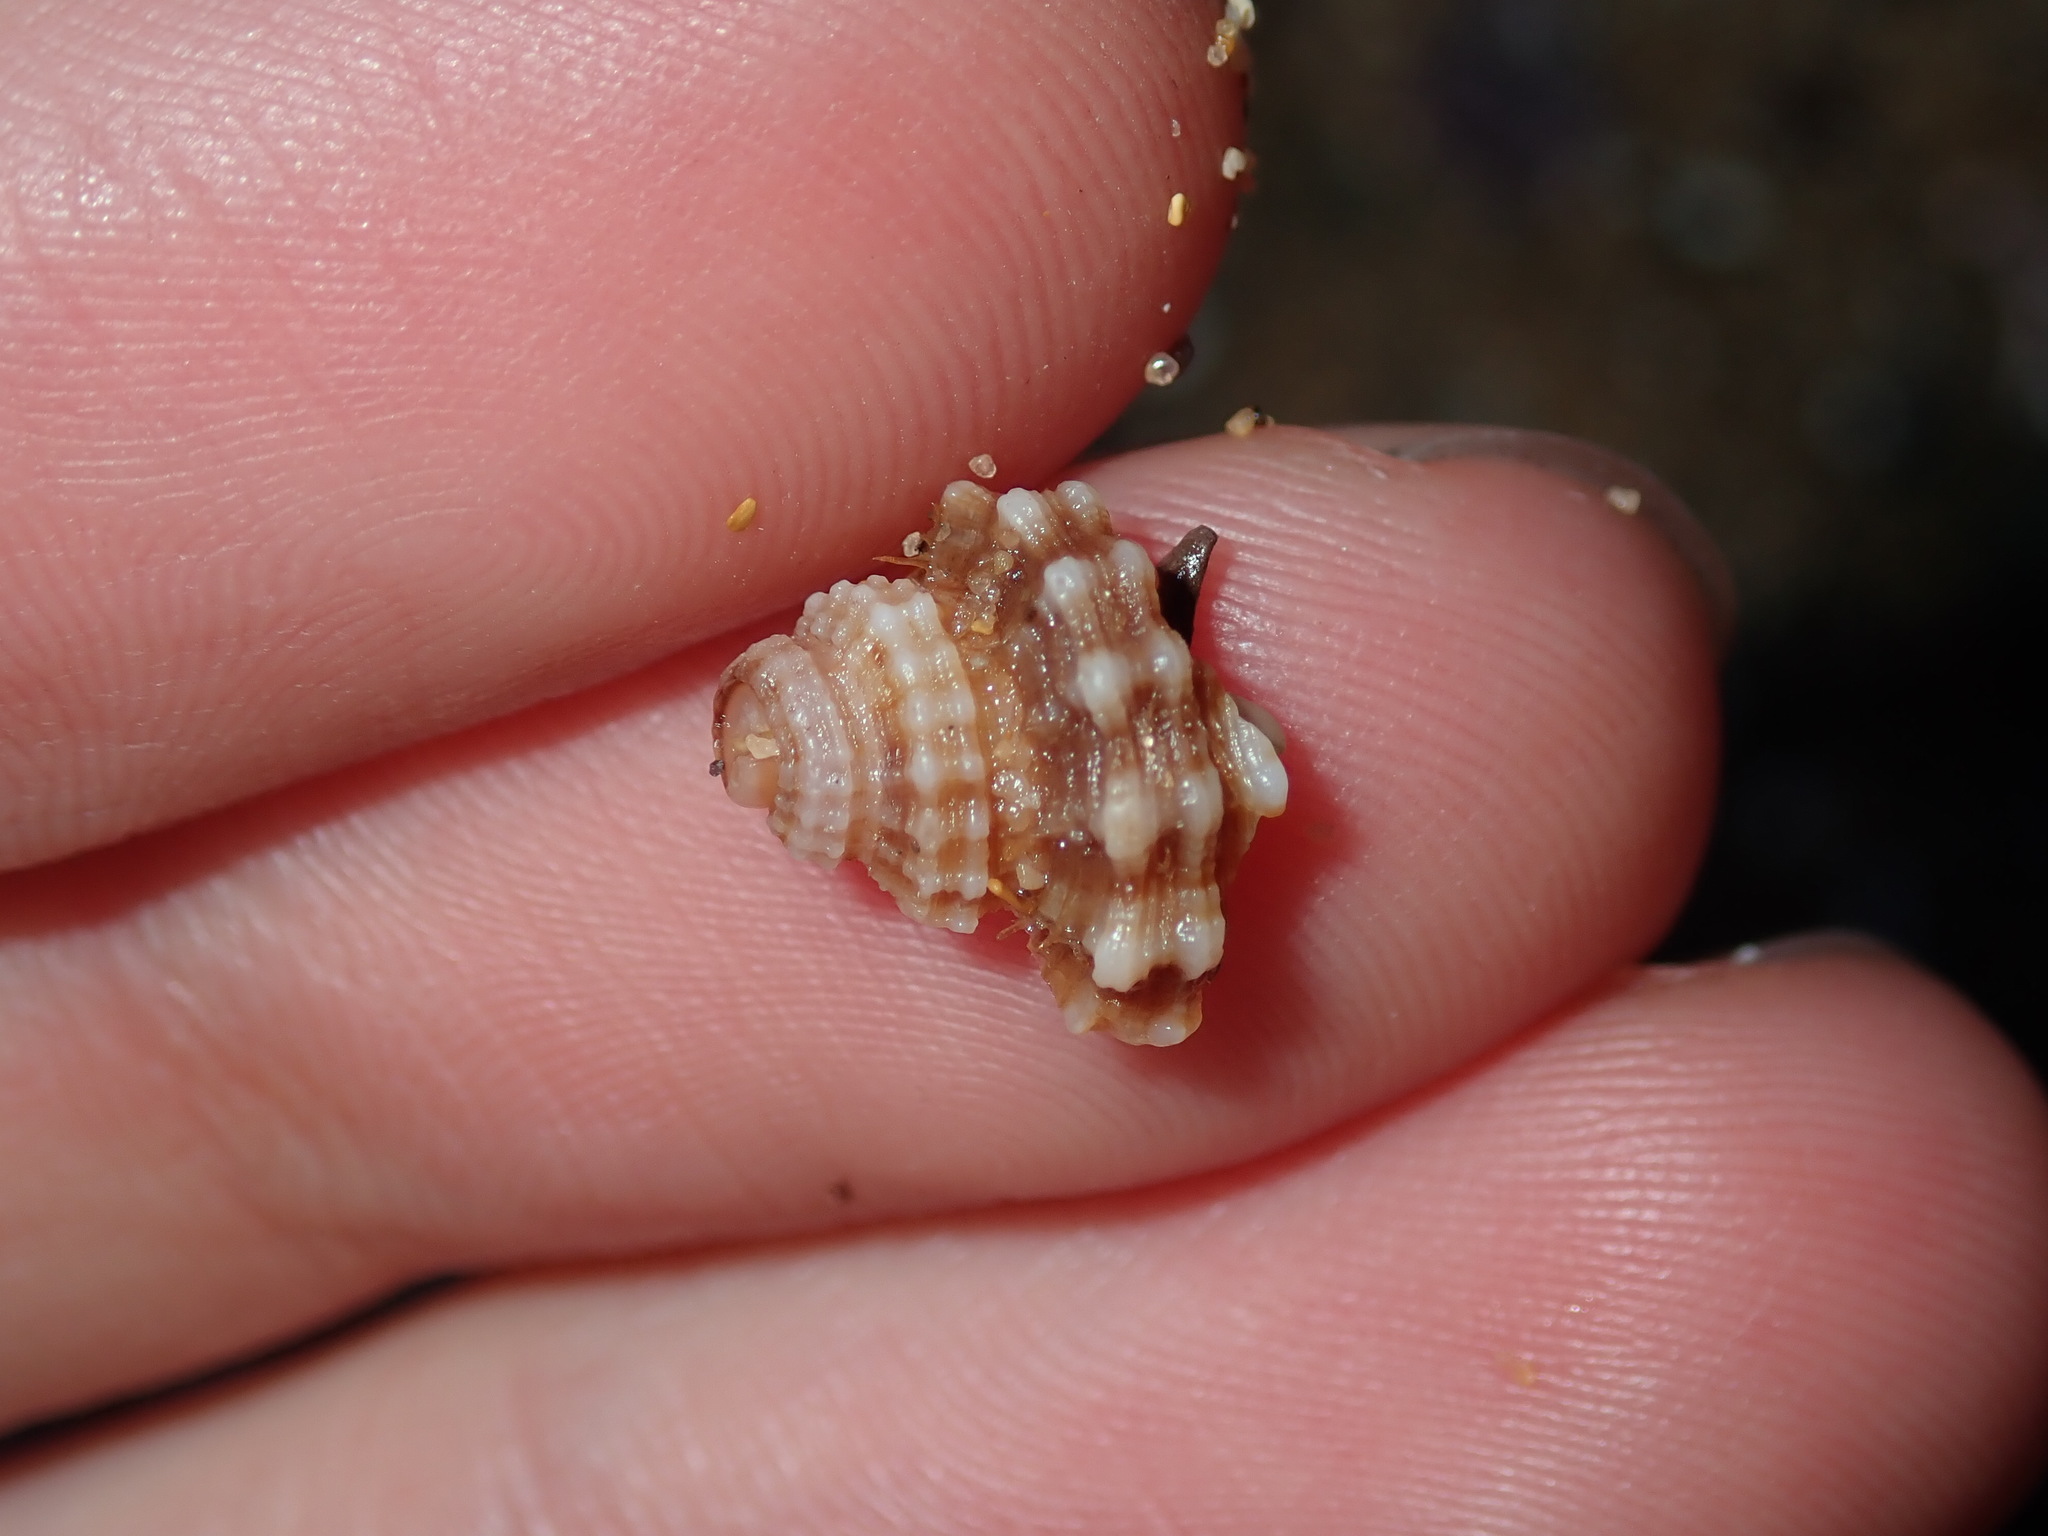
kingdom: Animalia
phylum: Mollusca
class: Gastropoda
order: Littorinimorpha
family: Cymatiidae
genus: Turritriton
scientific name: Turritriton labiosus
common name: Lip triton
